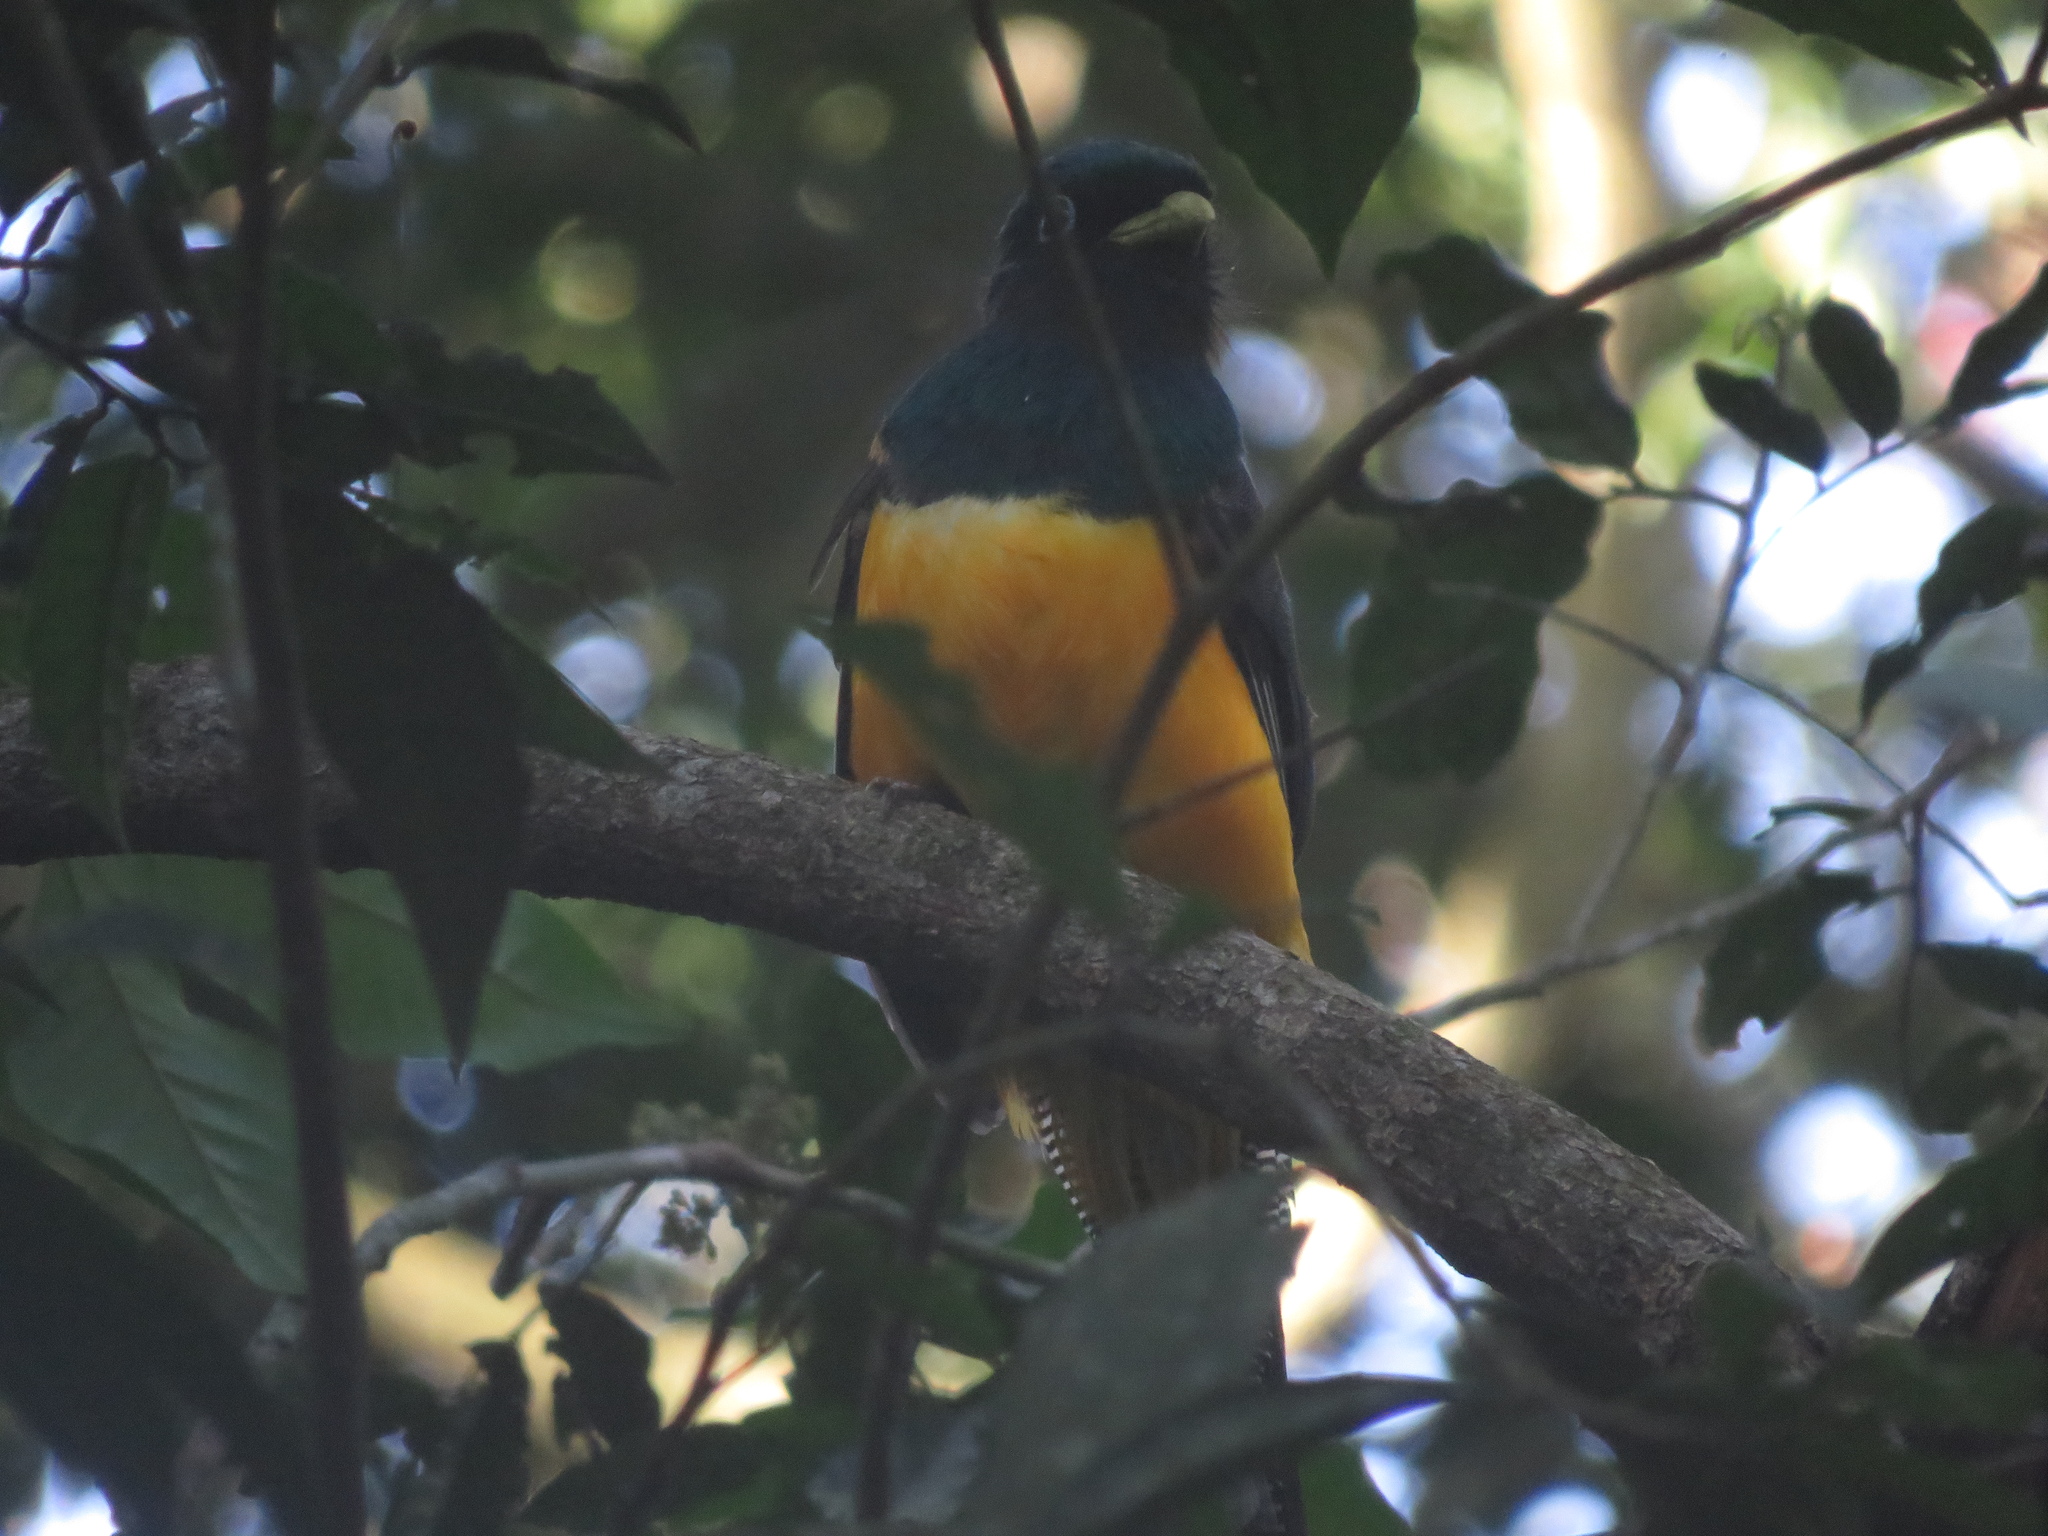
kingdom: Animalia
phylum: Chordata
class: Aves
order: Trogoniformes
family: Trogonidae
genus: Trogon
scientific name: Trogon rufus
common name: Black-throated trogon
